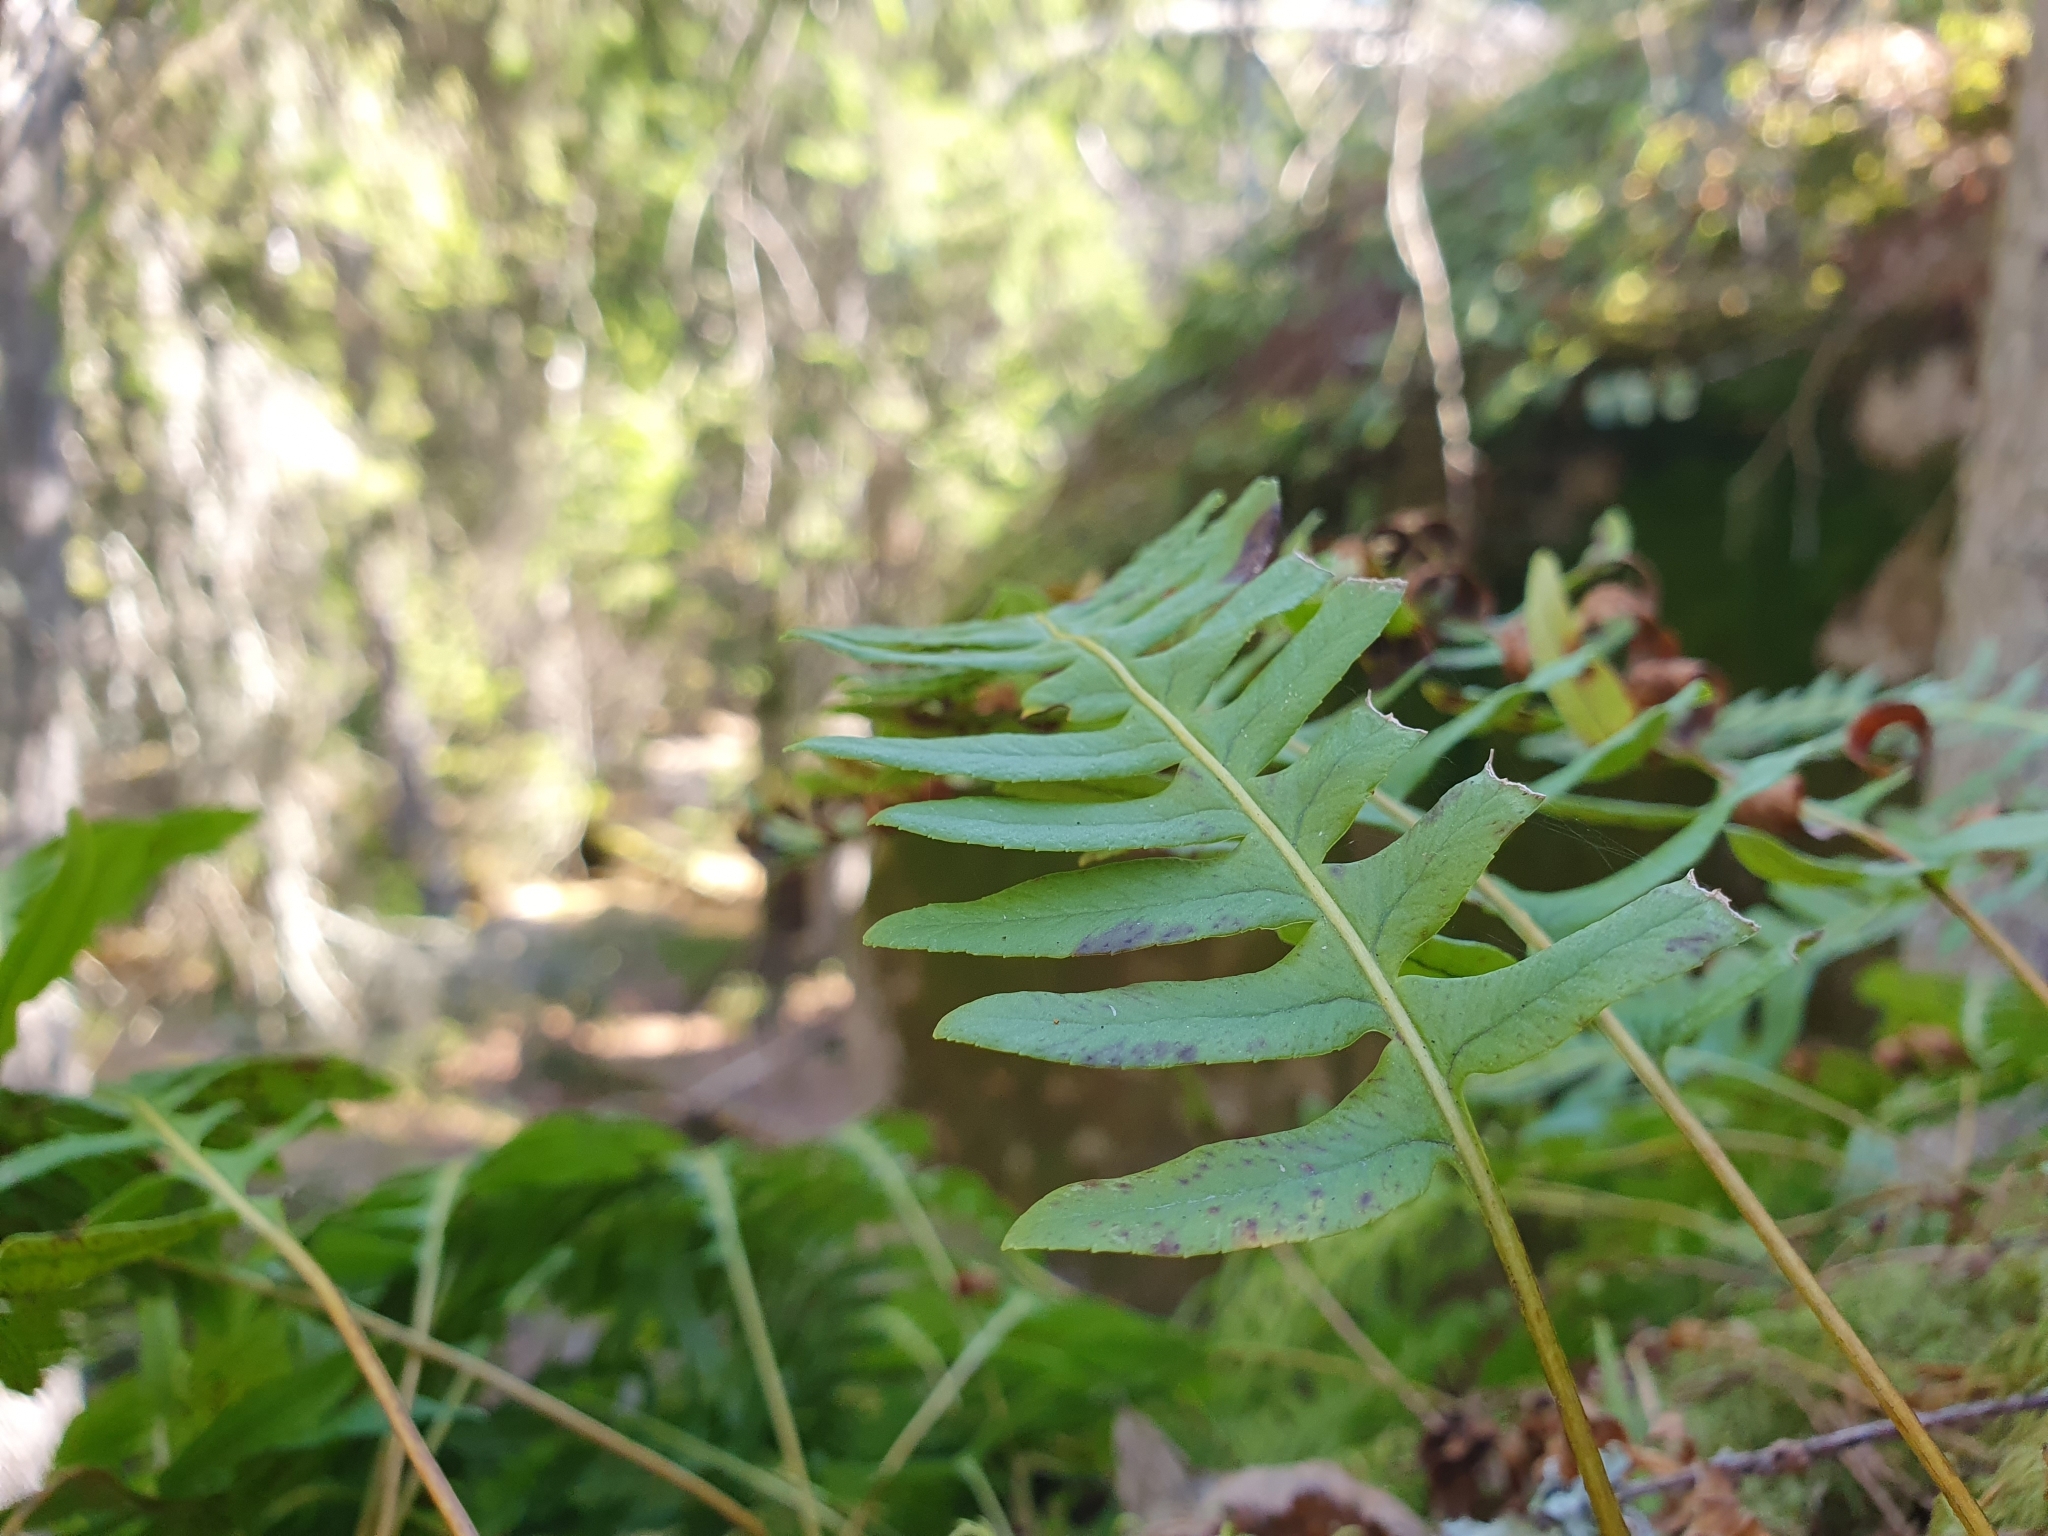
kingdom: Plantae
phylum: Tracheophyta
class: Polypodiopsida
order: Polypodiales
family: Polypodiaceae
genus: Polypodium
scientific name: Polypodium vulgare
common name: Common polypody
